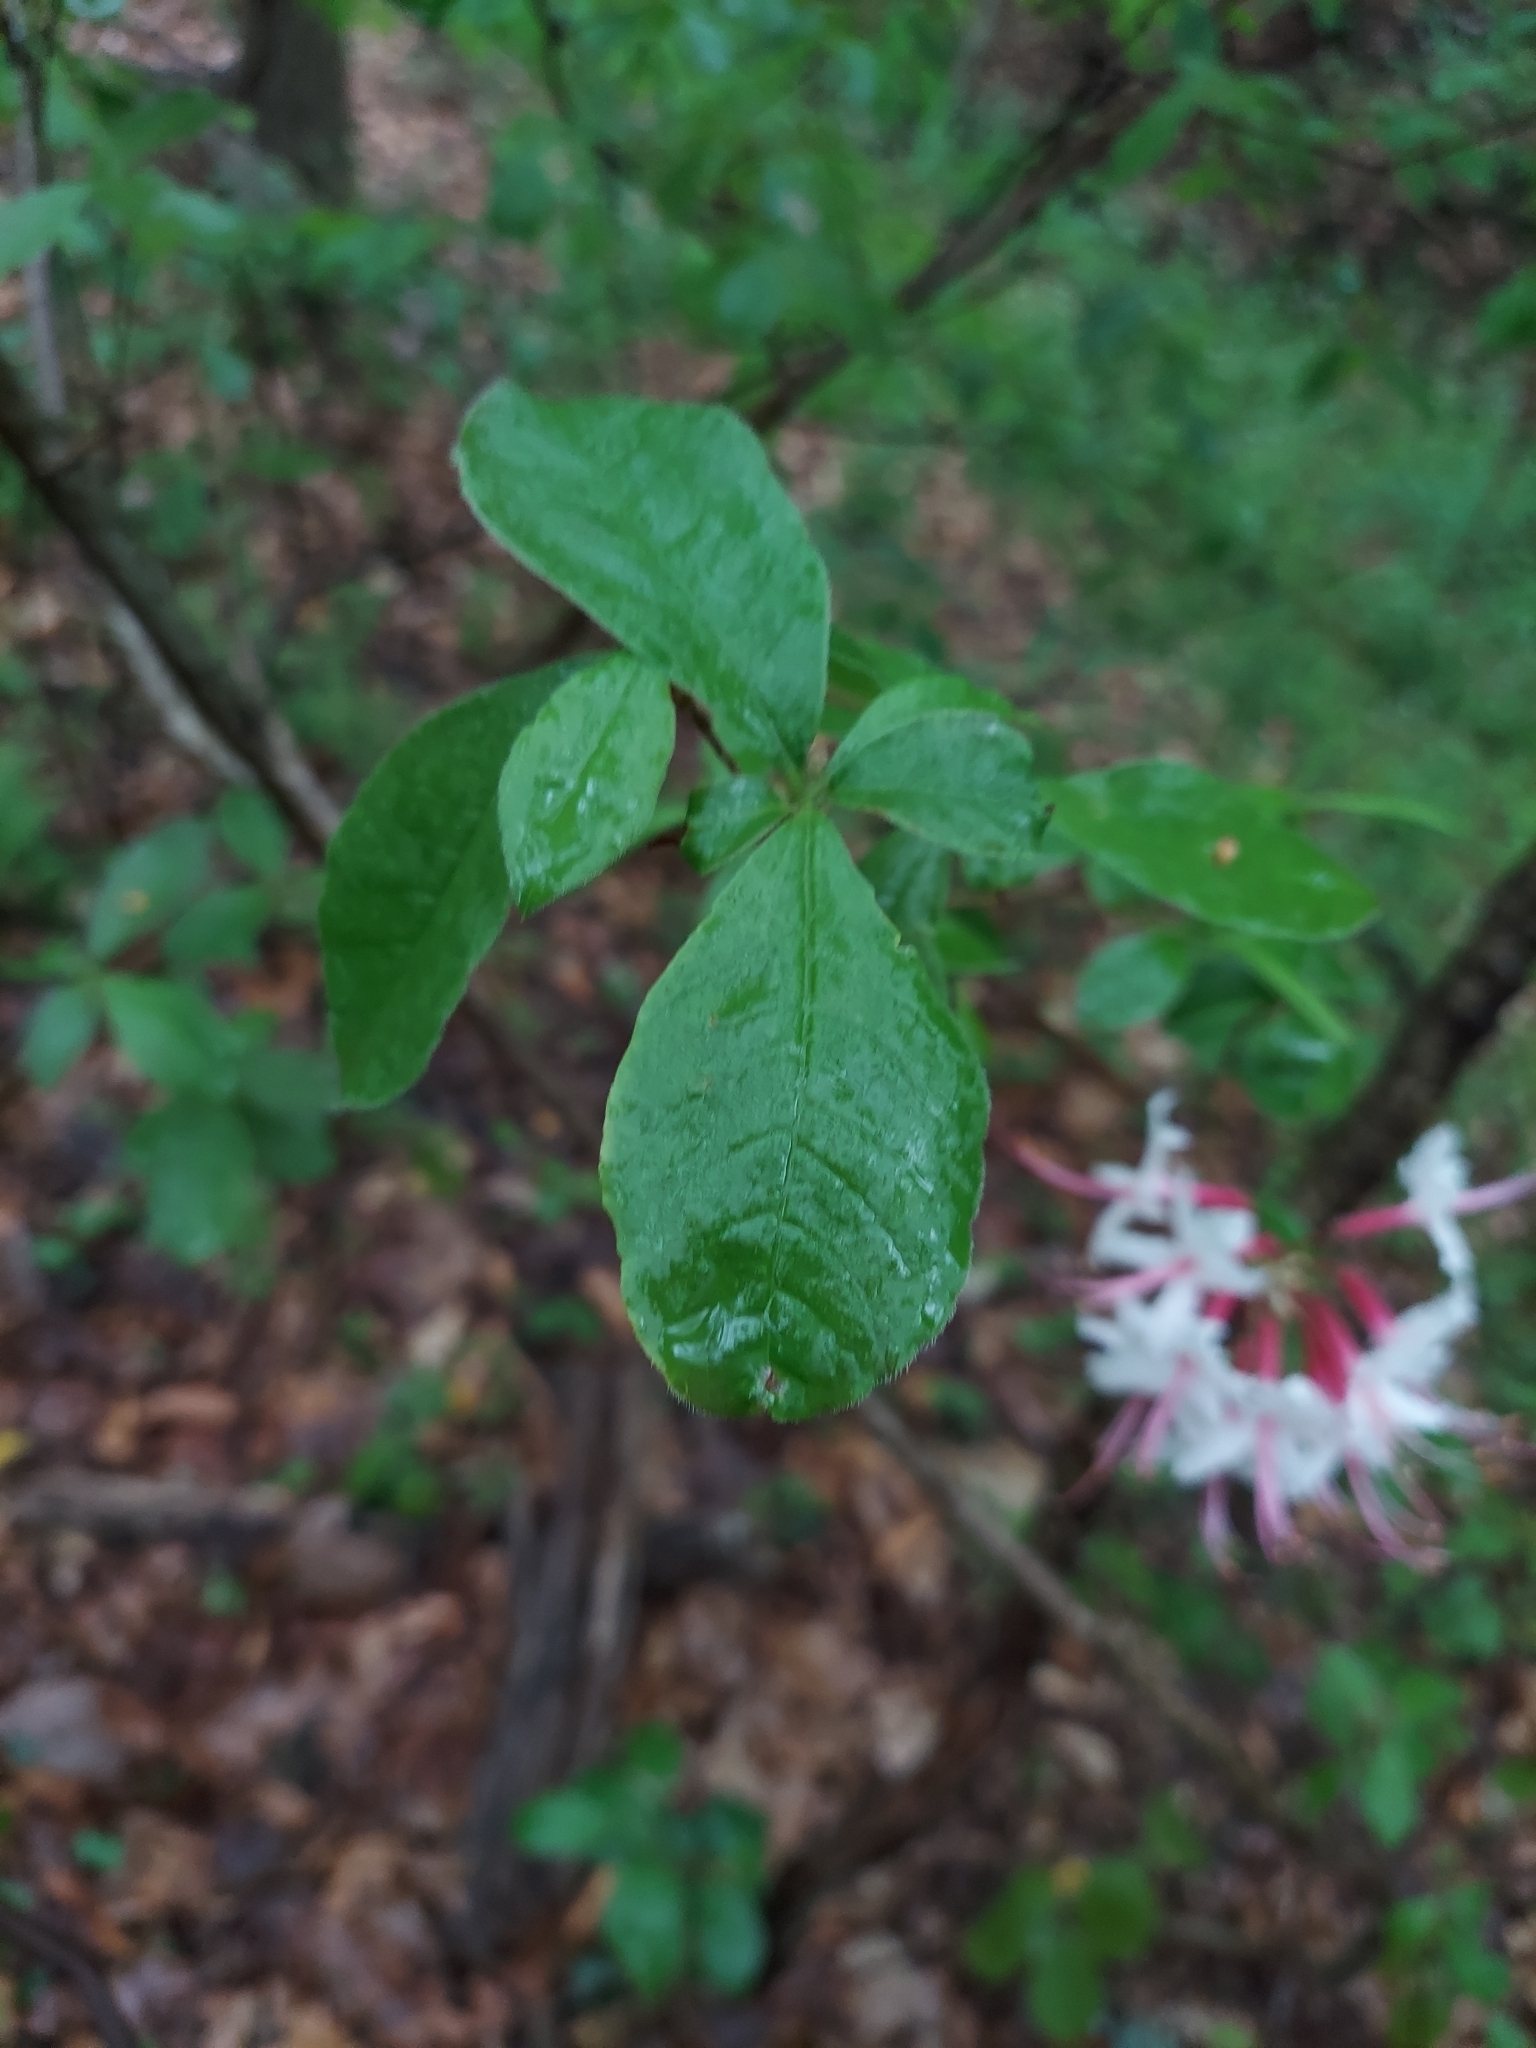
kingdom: Plantae
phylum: Tracheophyta
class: Magnoliopsida
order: Ericales
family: Ericaceae
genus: Rhododendron
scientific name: Rhododendron periclymenoides
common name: Election-pink
